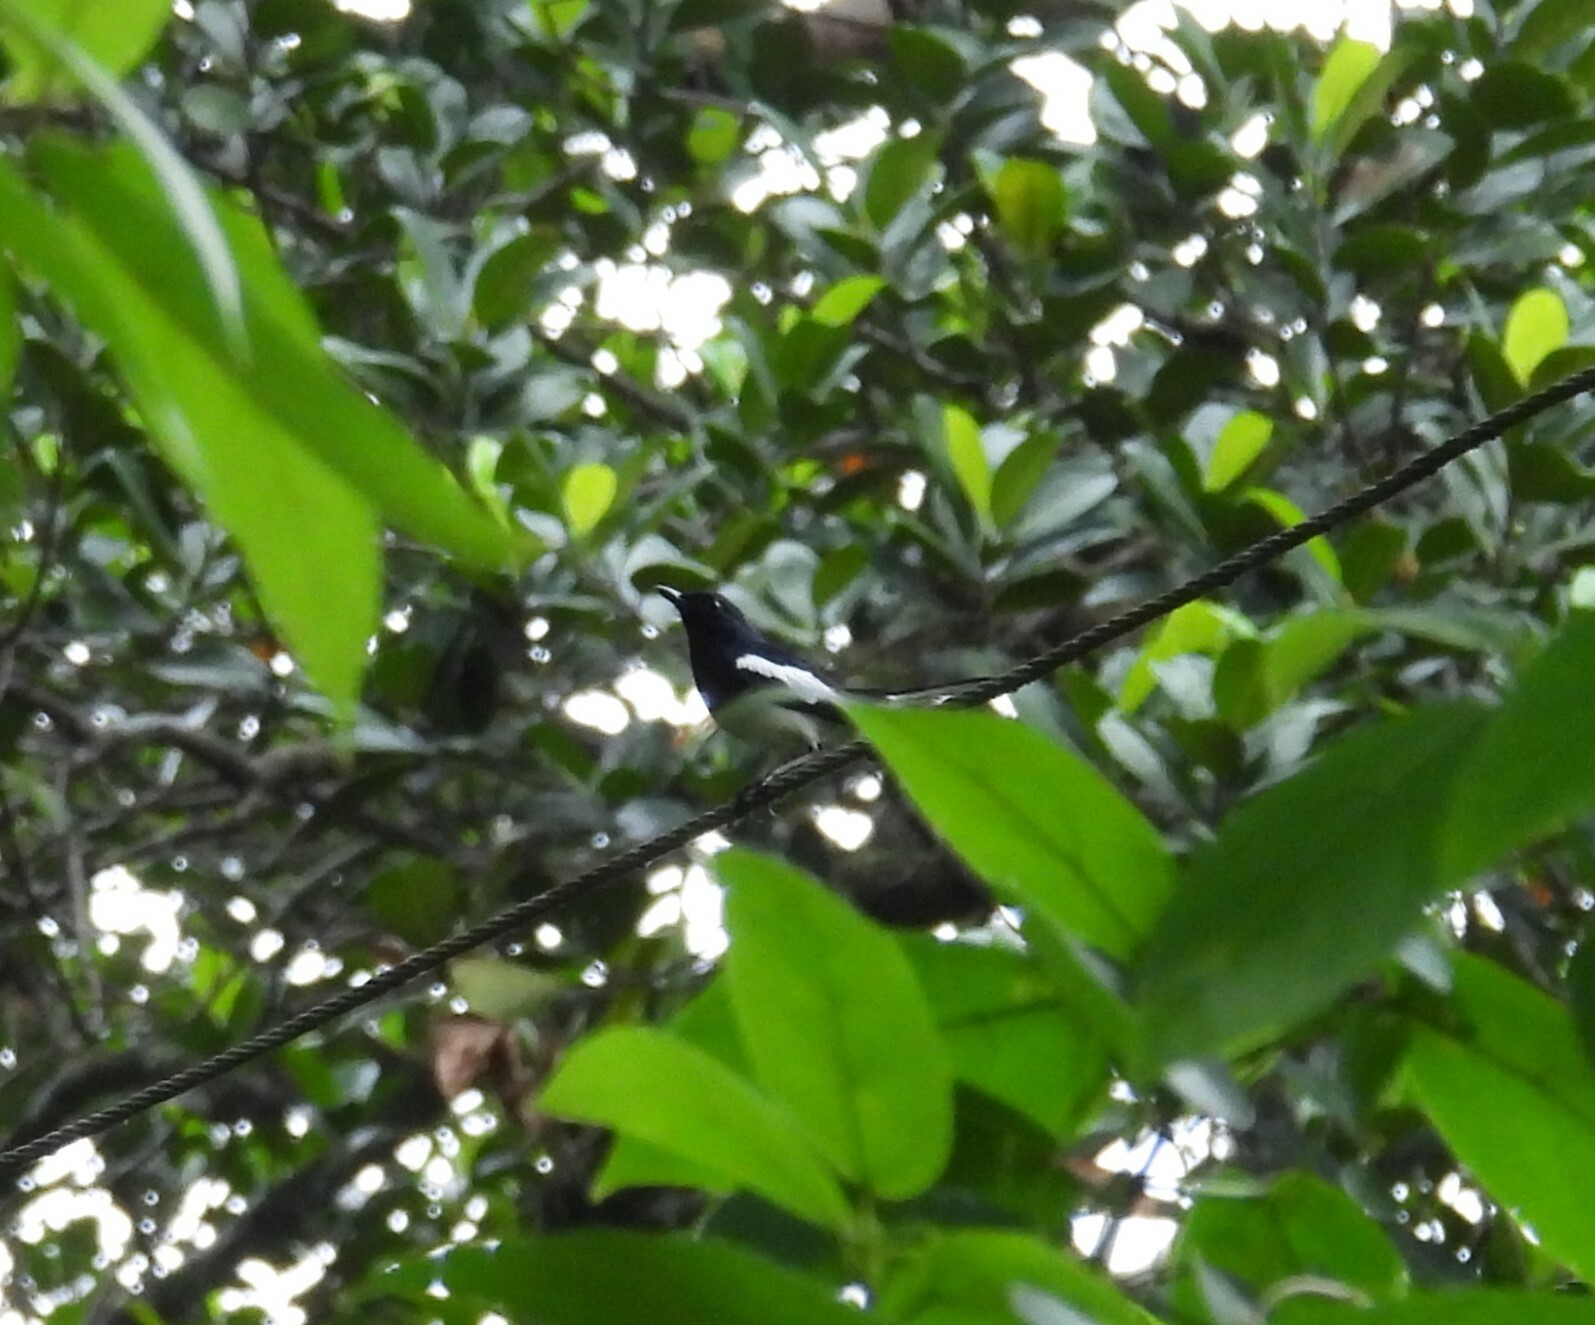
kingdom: Animalia
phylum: Chordata
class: Aves
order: Passeriformes
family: Muscicapidae
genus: Copsychus
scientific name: Copsychus saularis
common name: Oriental magpie-robin
